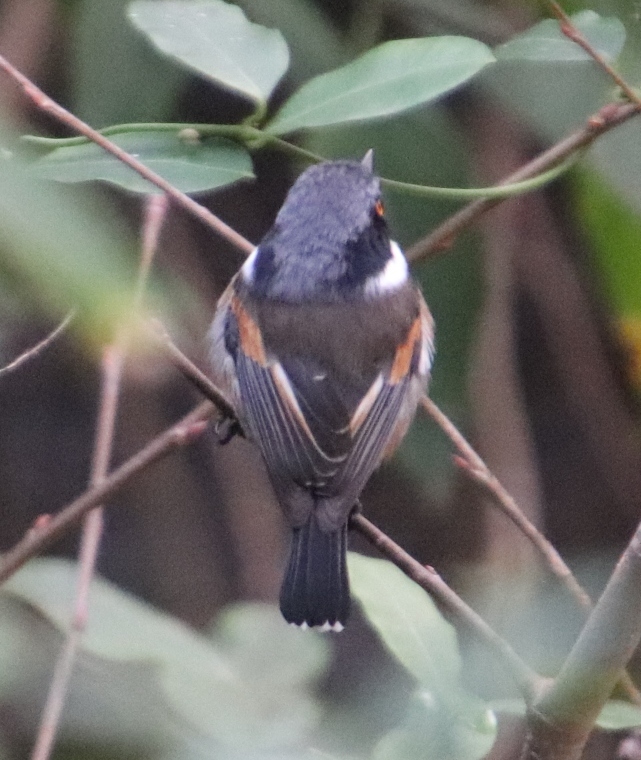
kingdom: Animalia
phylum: Chordata
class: Aves
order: Passeriformes
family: Platysteiridae
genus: Batis
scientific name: Batis capensis
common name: Cape batis
